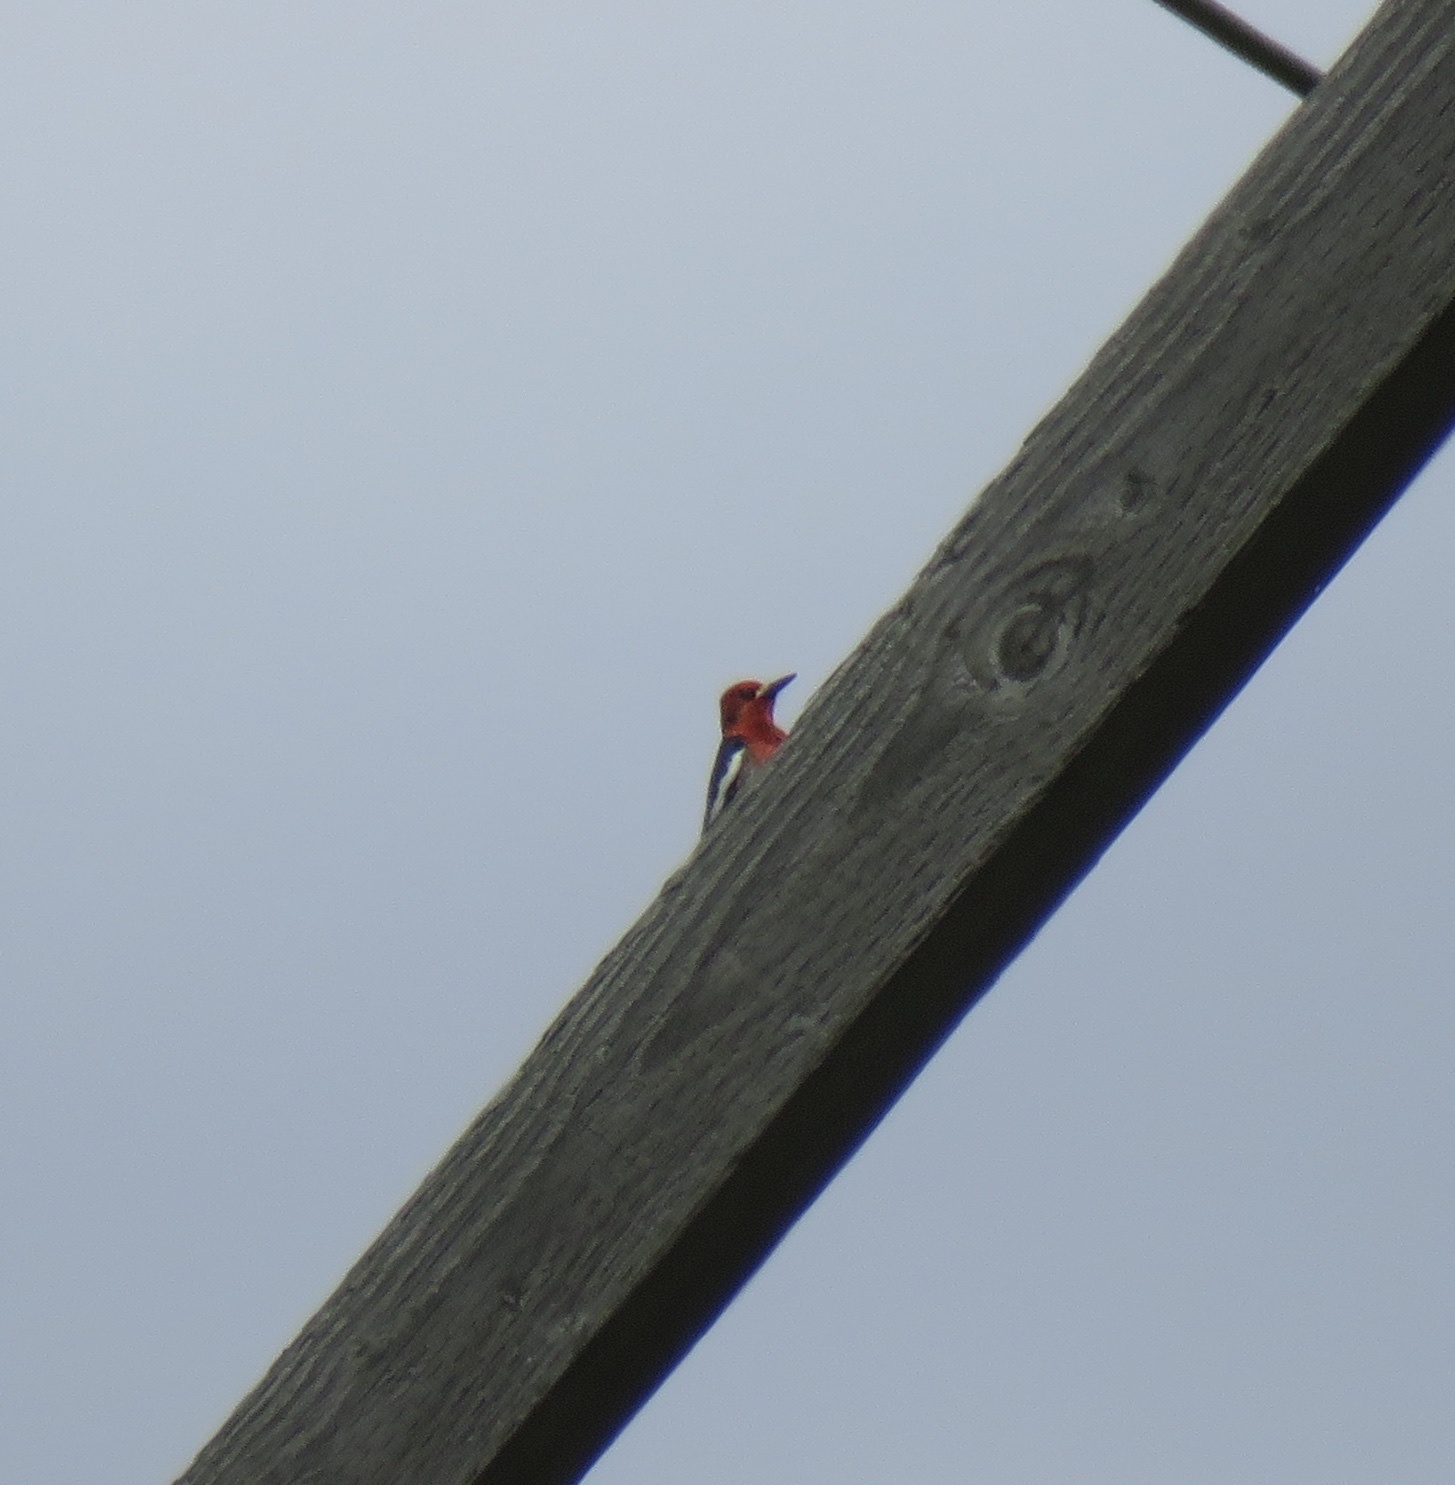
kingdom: Animalia
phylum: Chordata
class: Aves
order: Piciformes
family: Picidae
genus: Sphyrapicus
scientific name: Sphyrapicus ruber
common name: Red-breasted sapsucker
